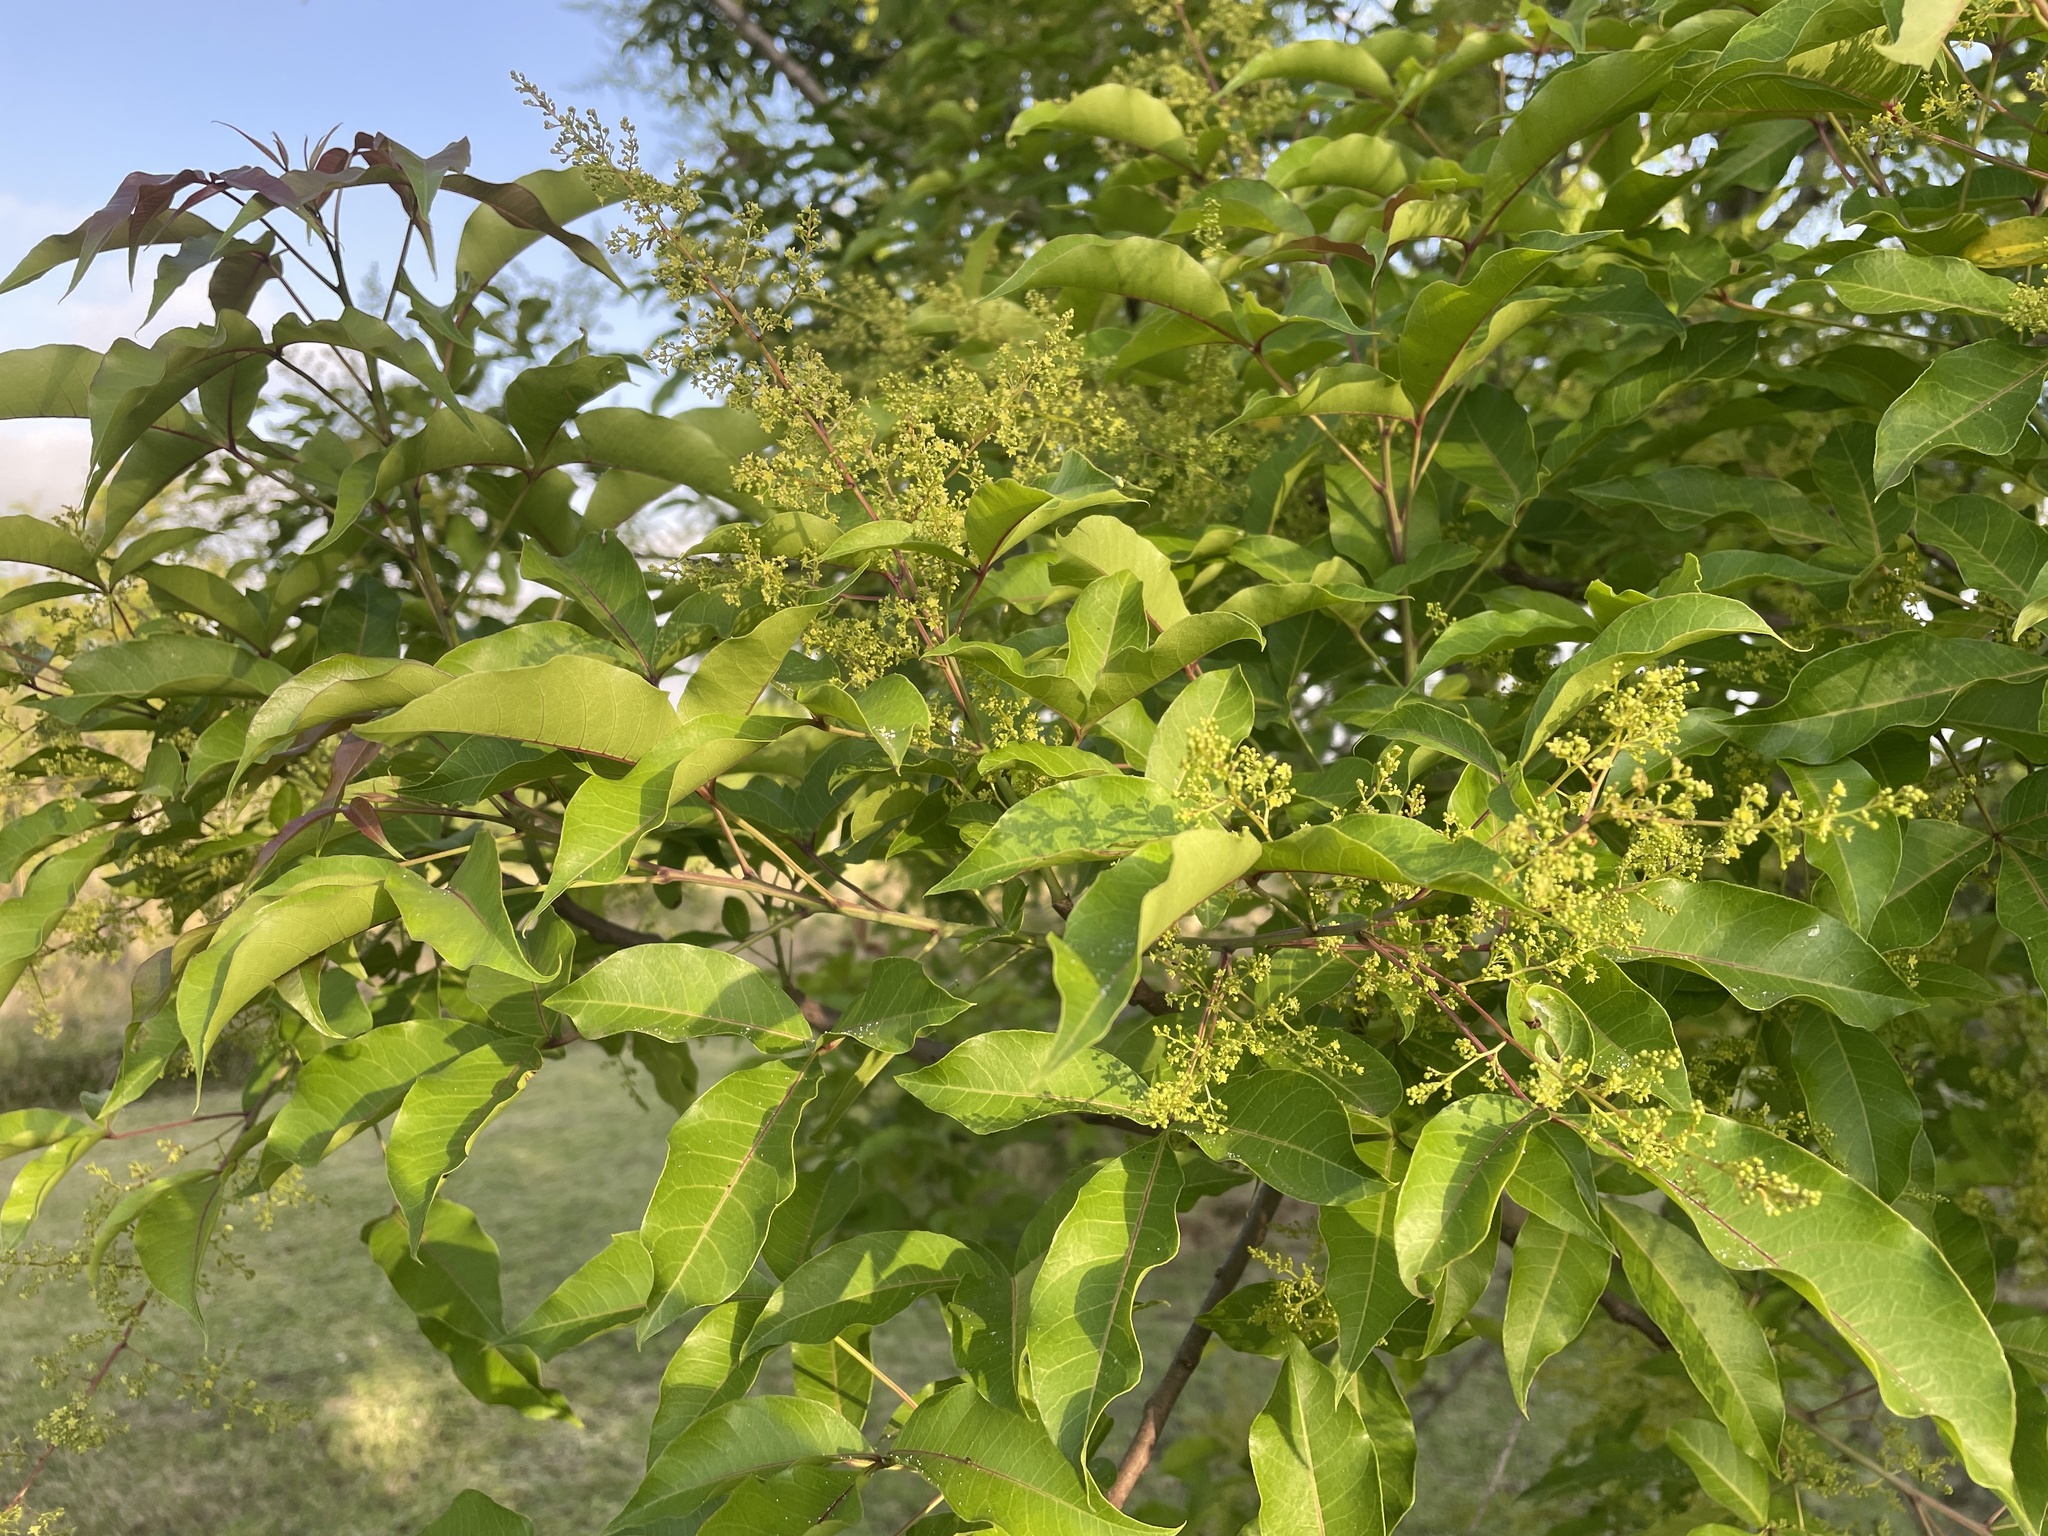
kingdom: Plantae
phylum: Tracheophyta
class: Magnoliopsida
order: Sapindales
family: Anacardiaceae
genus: Searsia
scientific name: Searsia chirindensis
